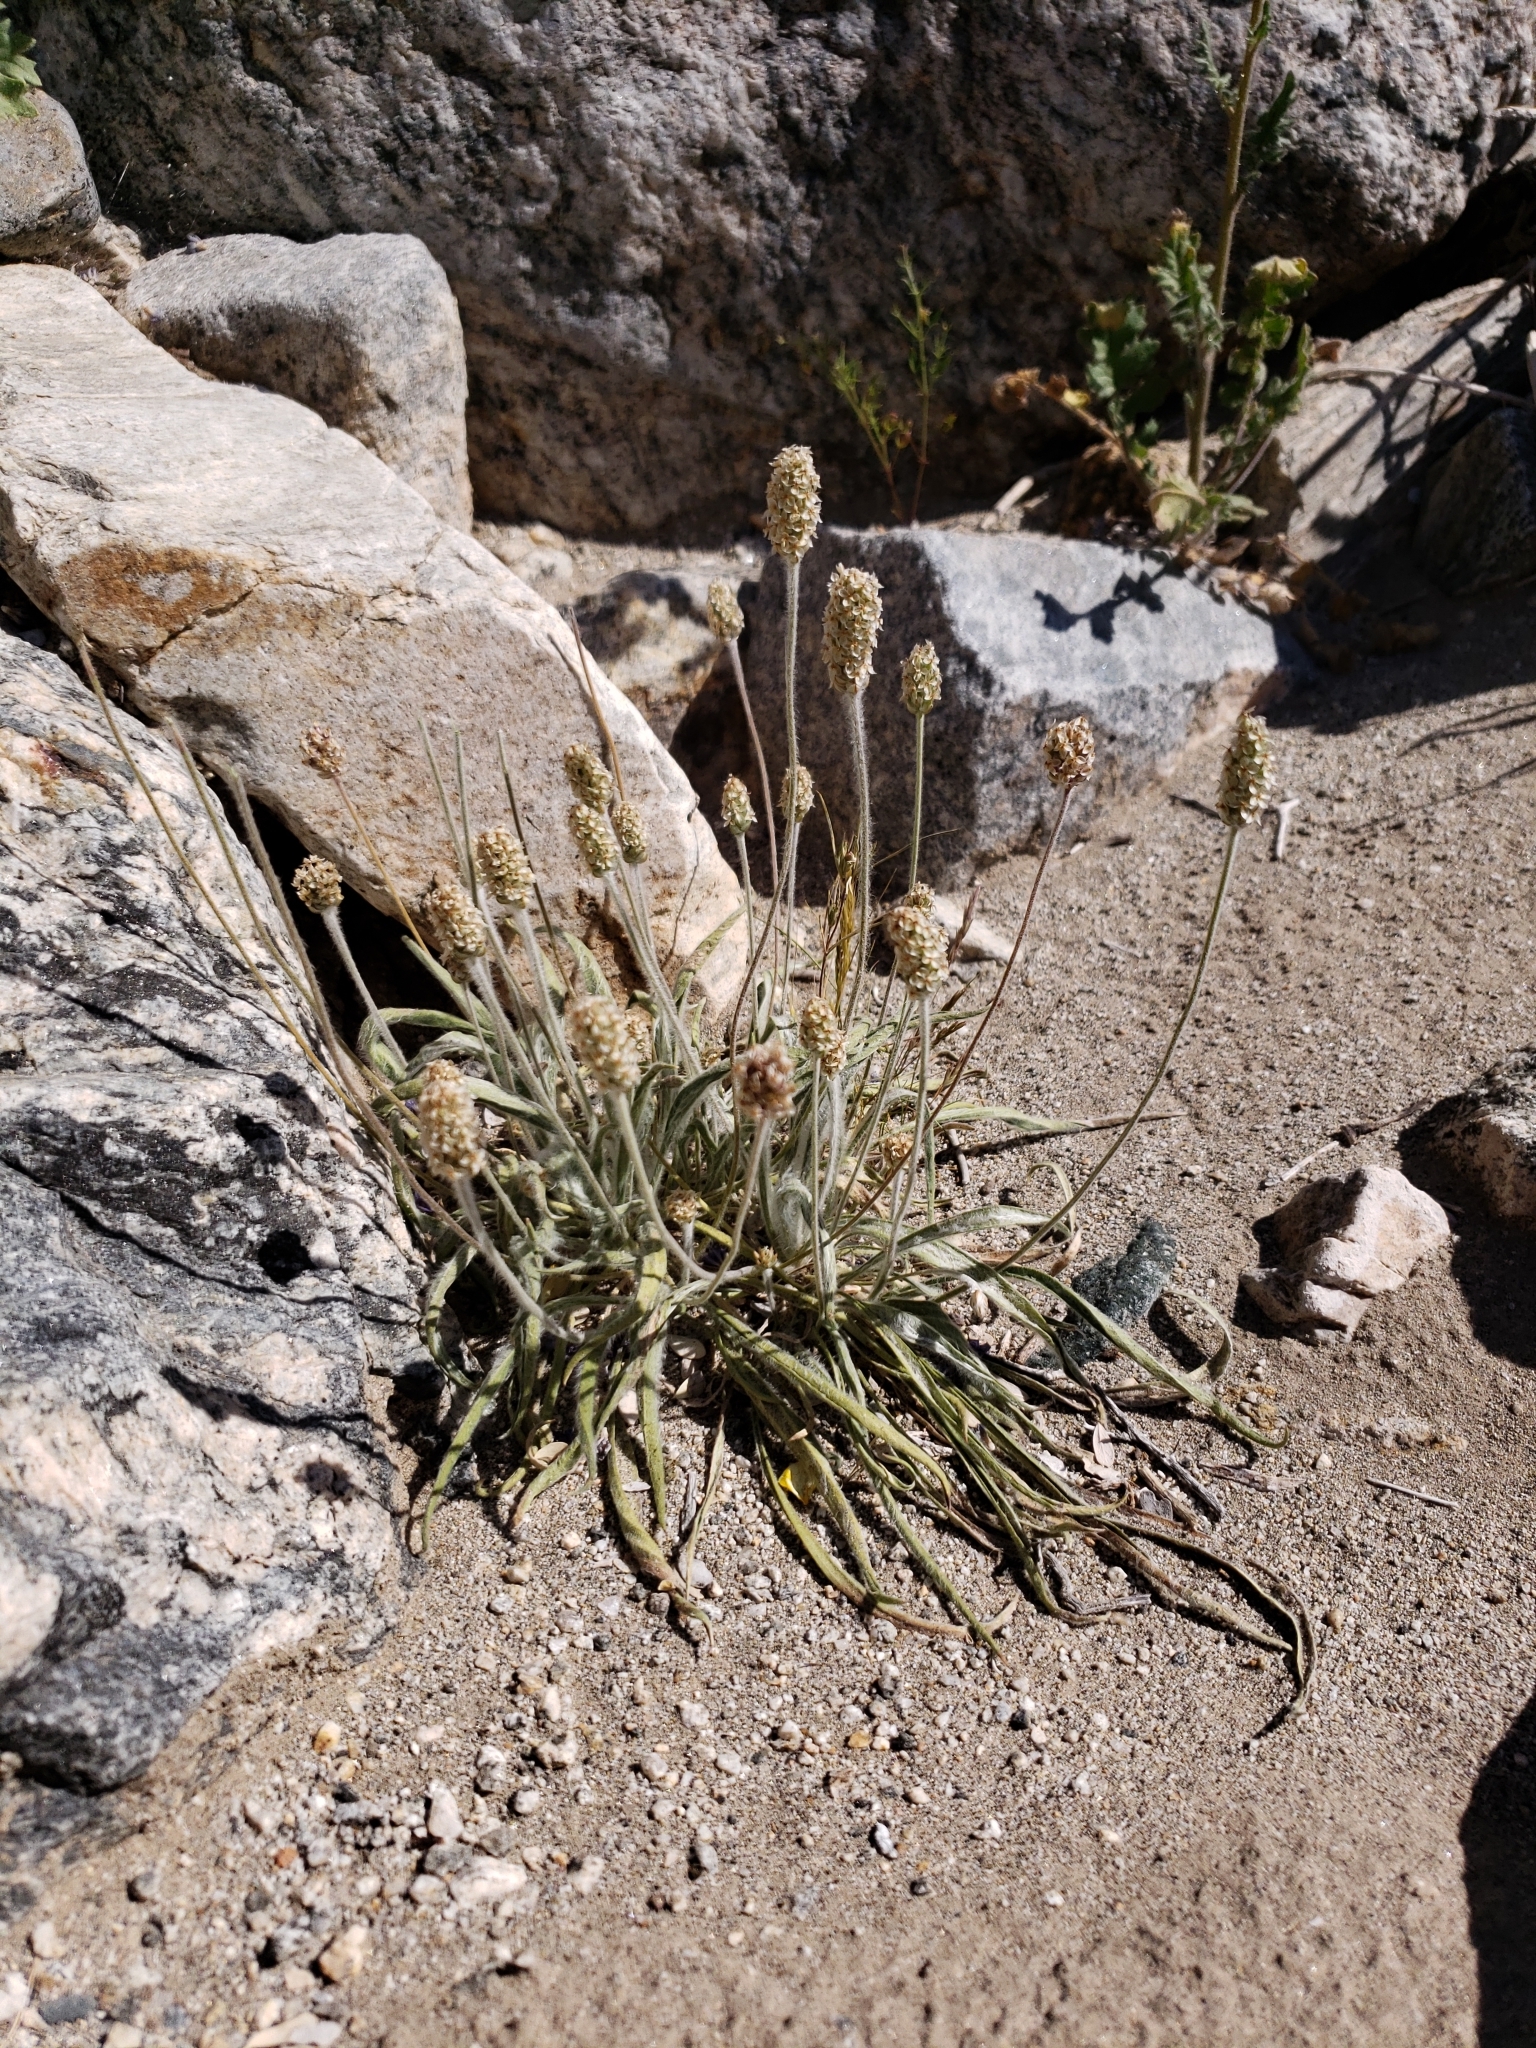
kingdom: Plantae
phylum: Tracheophyta
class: Magnoliopsida
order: Lamiales
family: Plantaginaceae
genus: Plantago
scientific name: Plantago ovata
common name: Blond plantain
